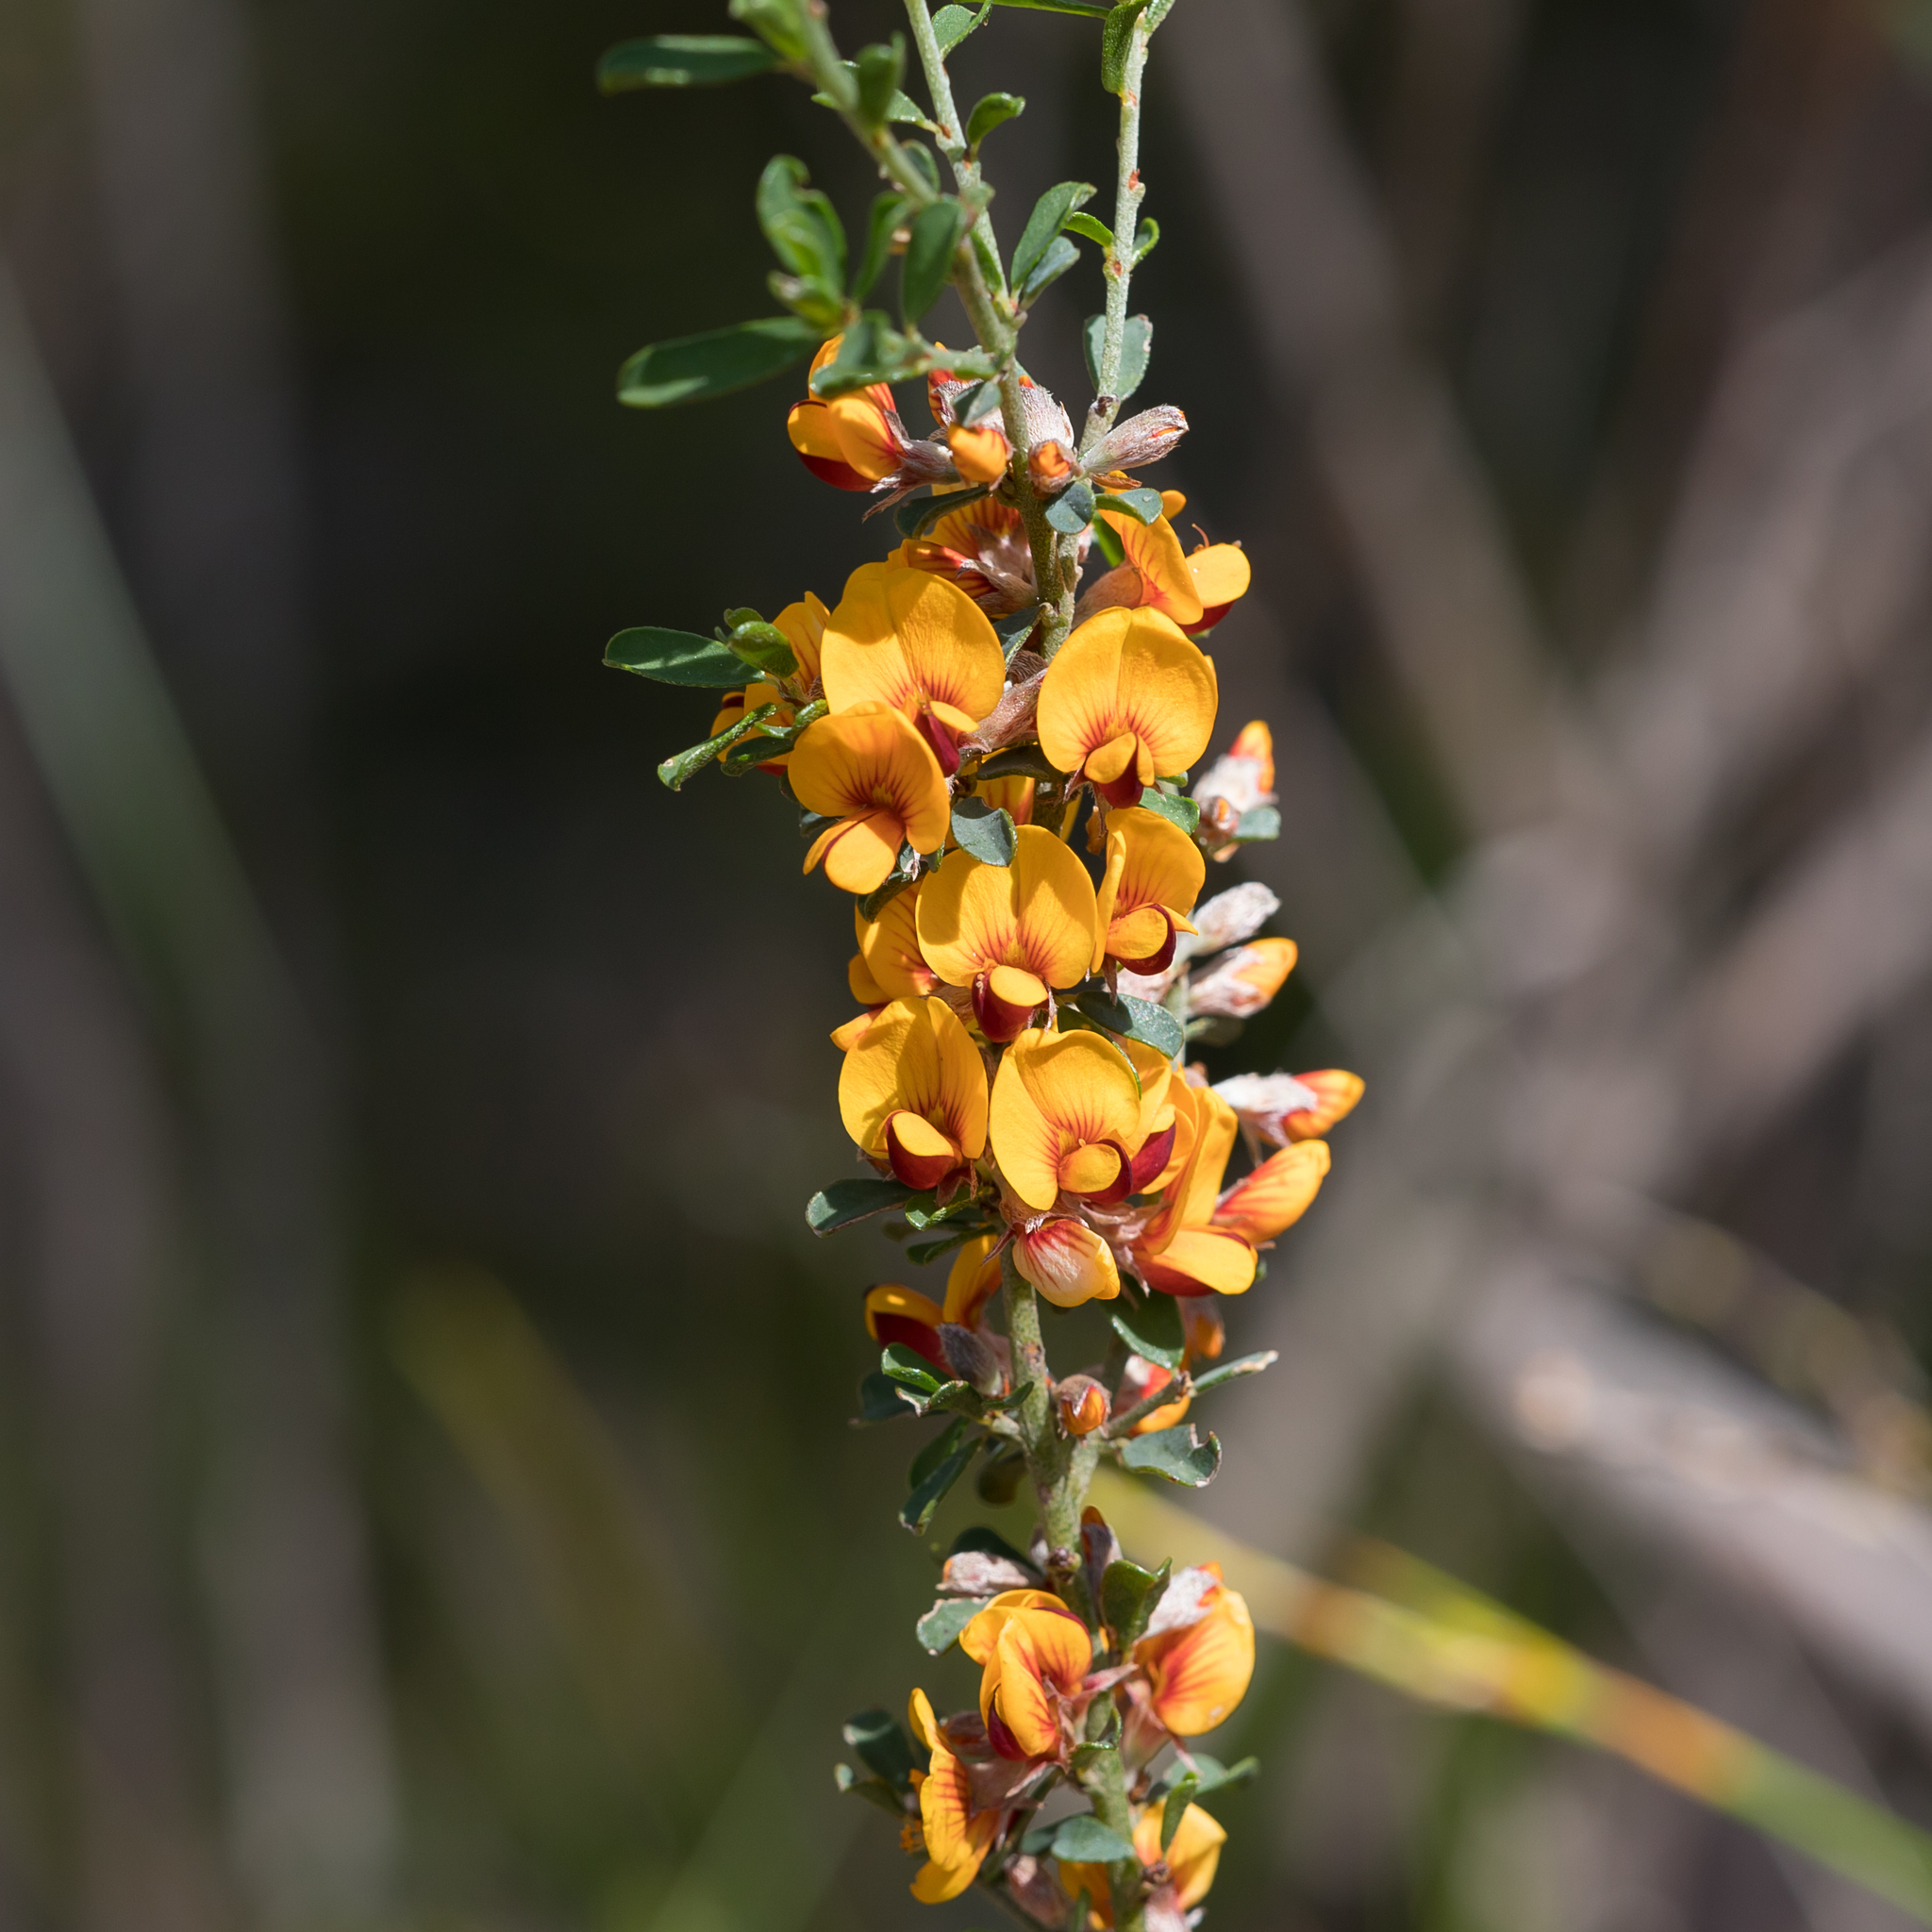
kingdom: Plantae
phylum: Tracheophyta
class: Magnoliopsida
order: Fabales
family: Fabaceae
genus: Pultenaea
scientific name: Pultenaea largiflorens
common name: Twiggy bush-pea
